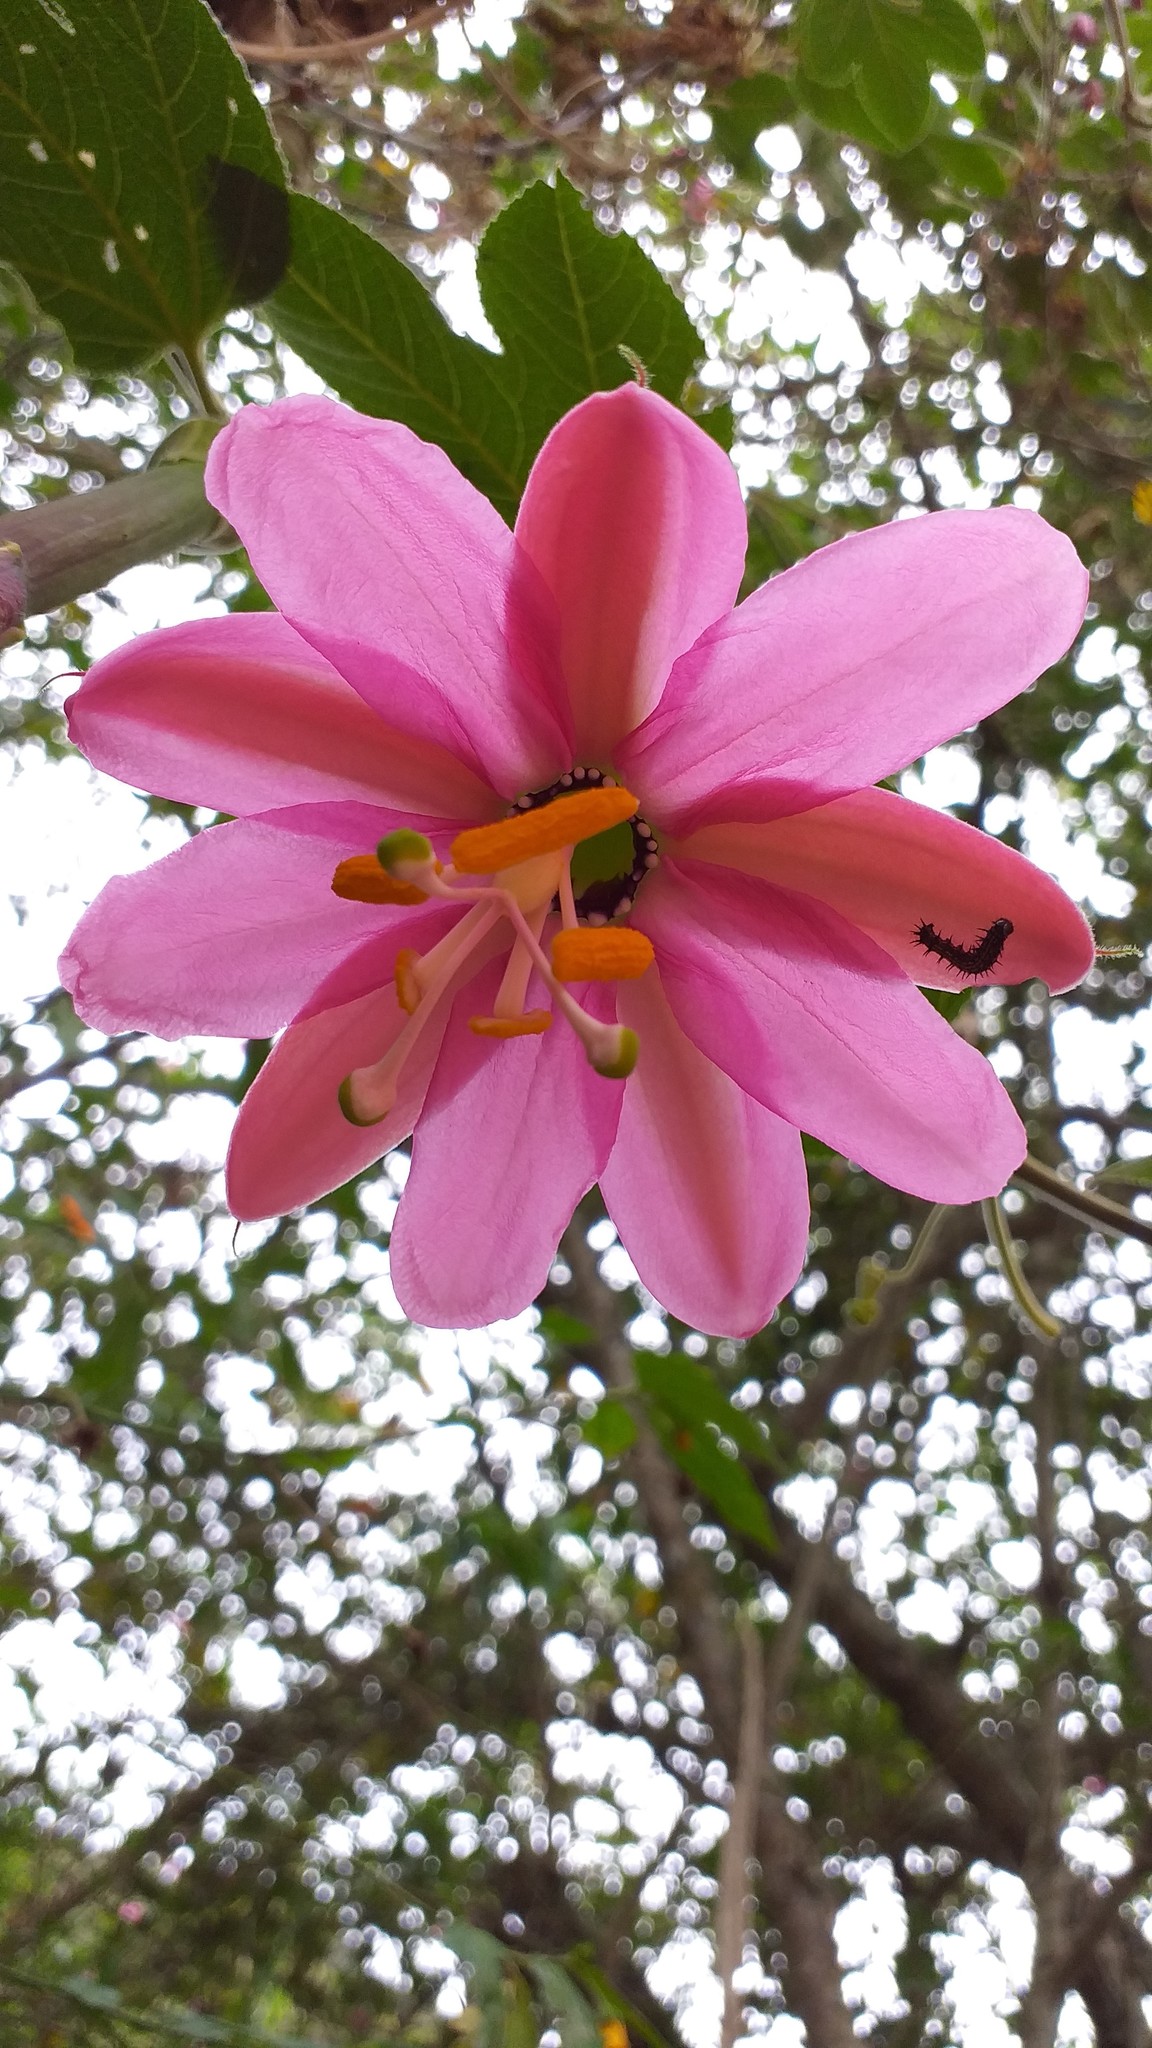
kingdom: Plantae
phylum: Tracheophyta
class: Magnoliopsida
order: Malpighiales
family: Passifloraceae
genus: Passiflora
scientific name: Passiflora tripartita
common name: Banana poka
